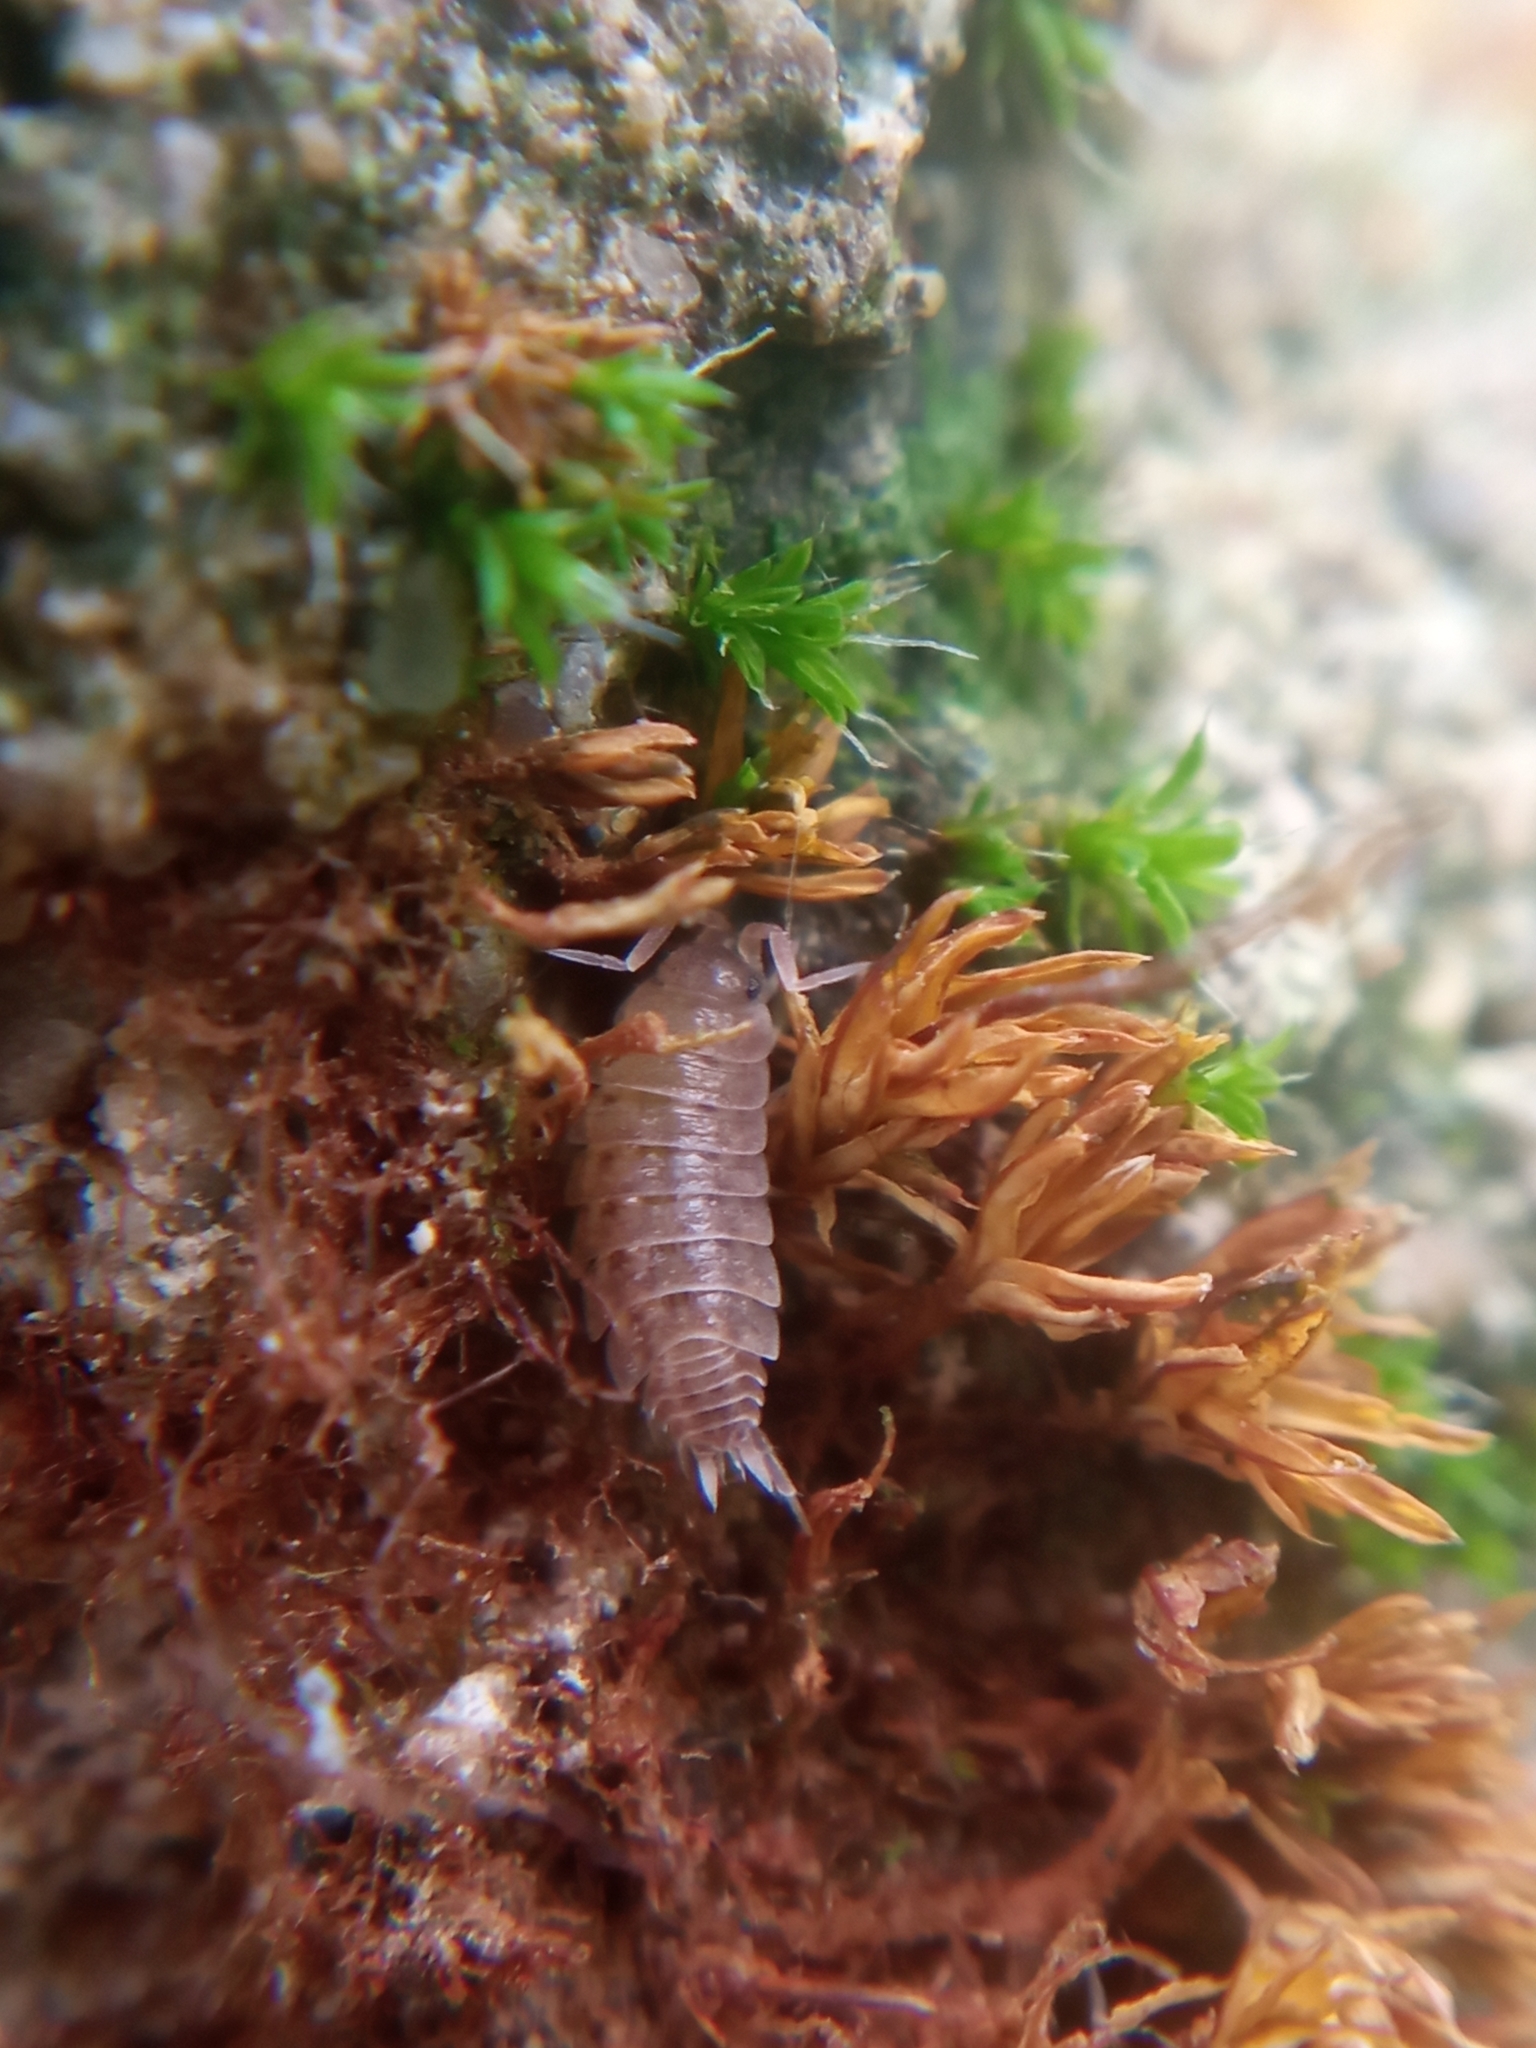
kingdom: Animalia
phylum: Arthropoda
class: Malacostraca
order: Isopoda
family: Agnaridae
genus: Orthometopon
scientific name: Orthometopon planum
